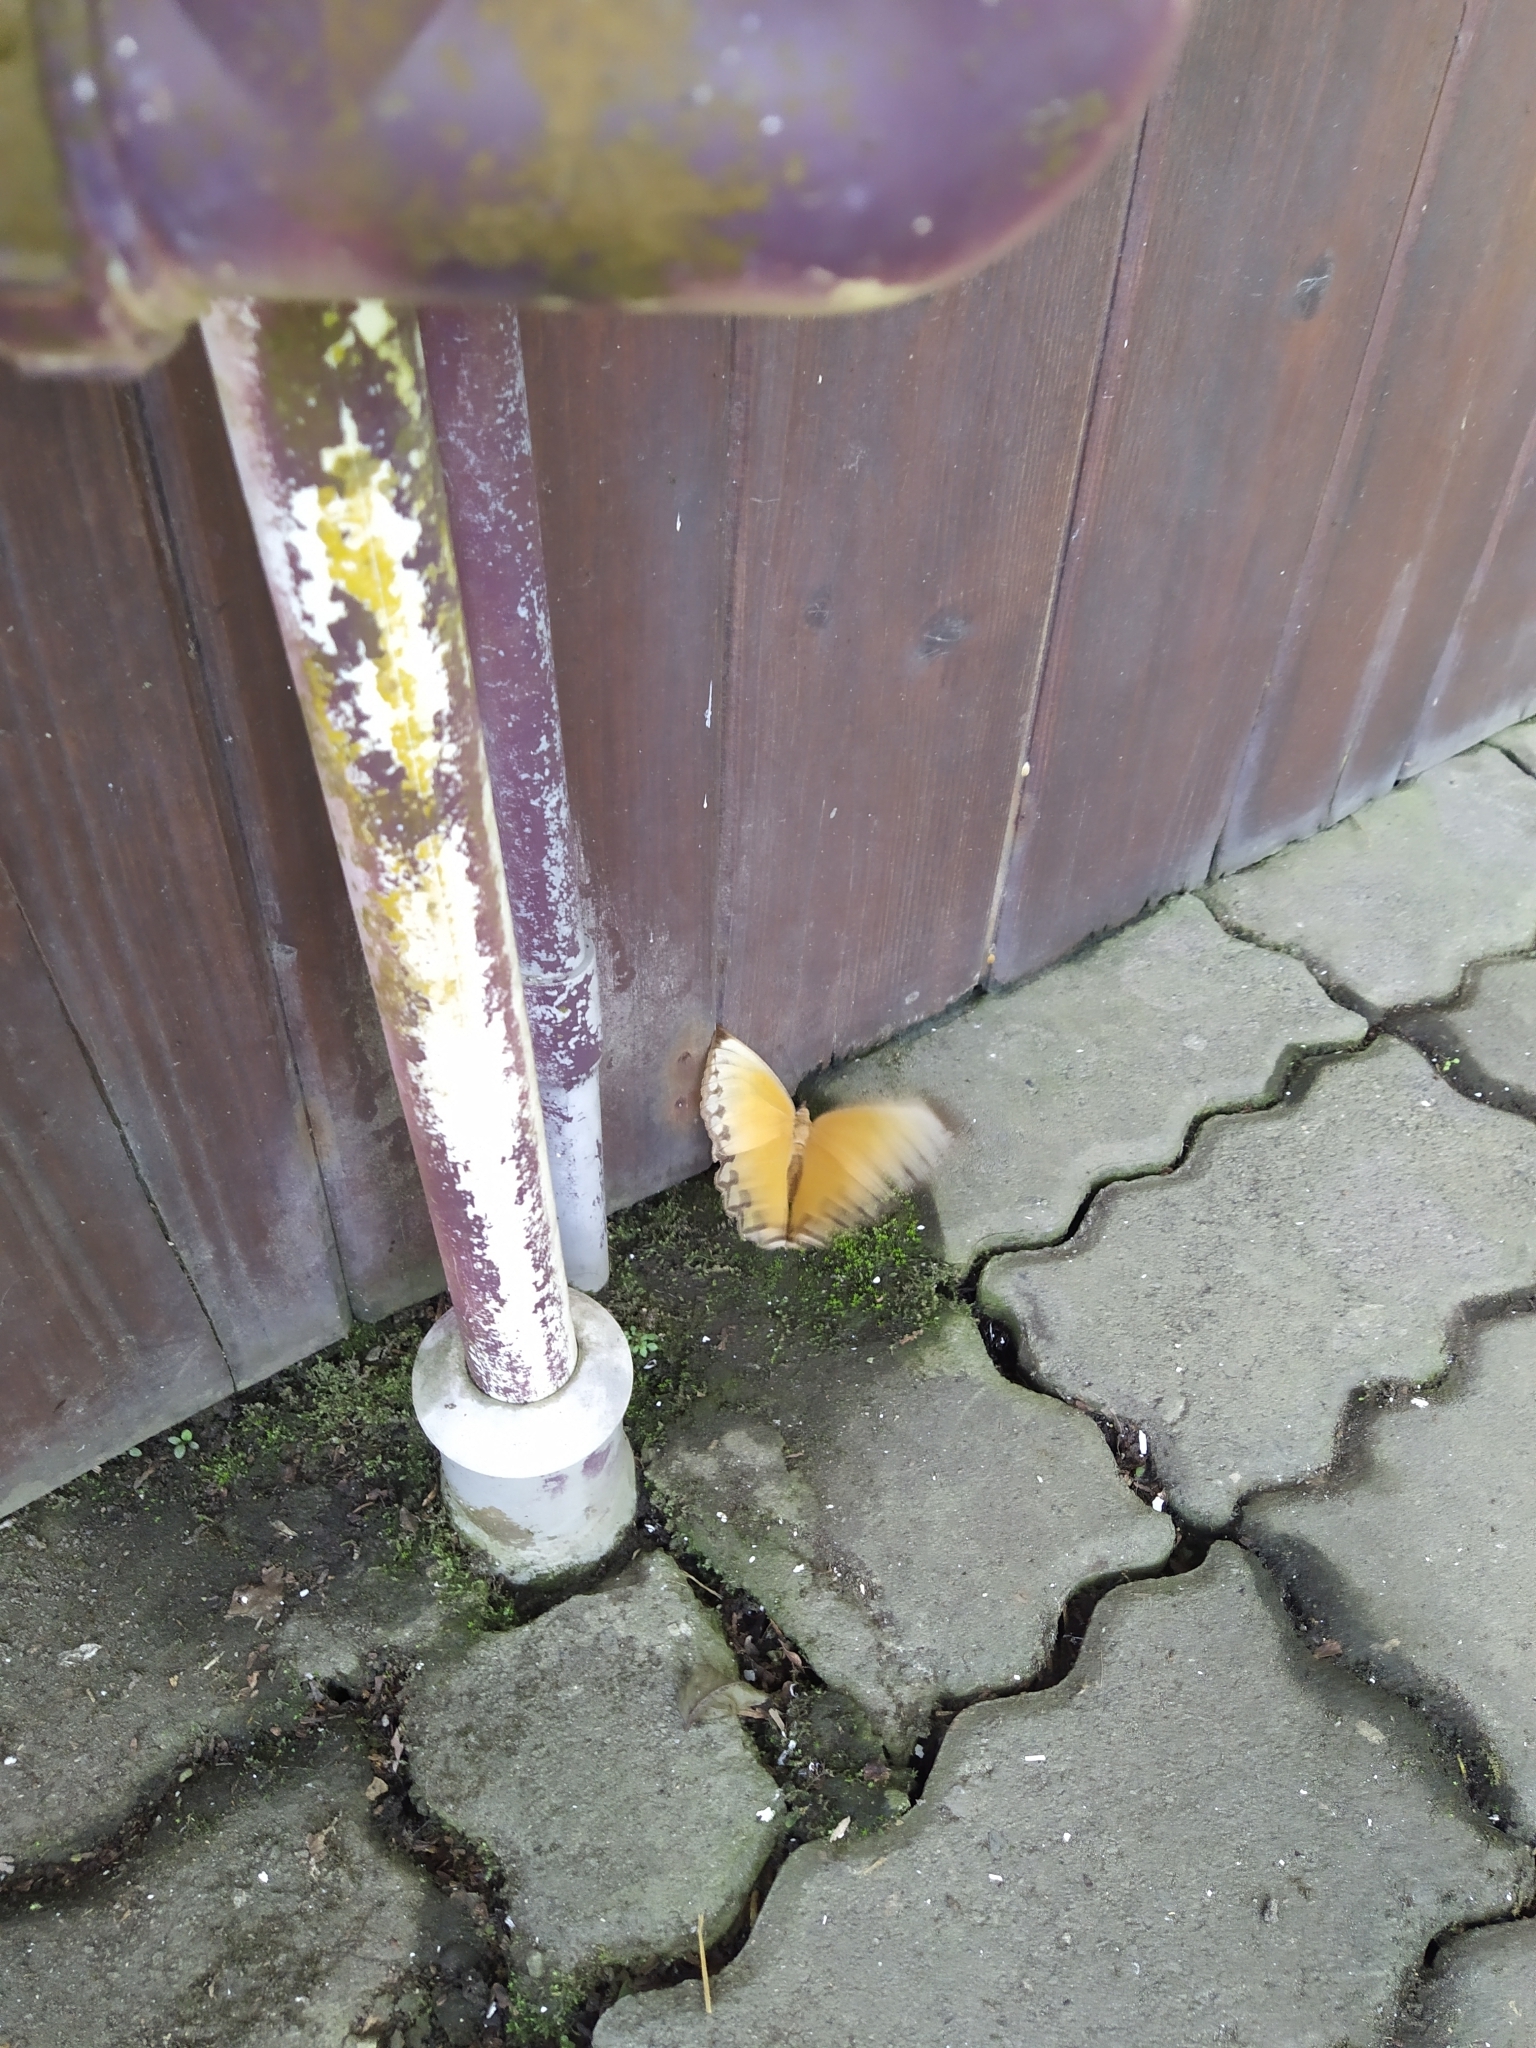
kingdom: Animalia
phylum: Arthropoda
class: Insecta
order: Lepidoptera
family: Nymphalidae
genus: Stichophthalma
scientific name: Stichophthalma howqua
